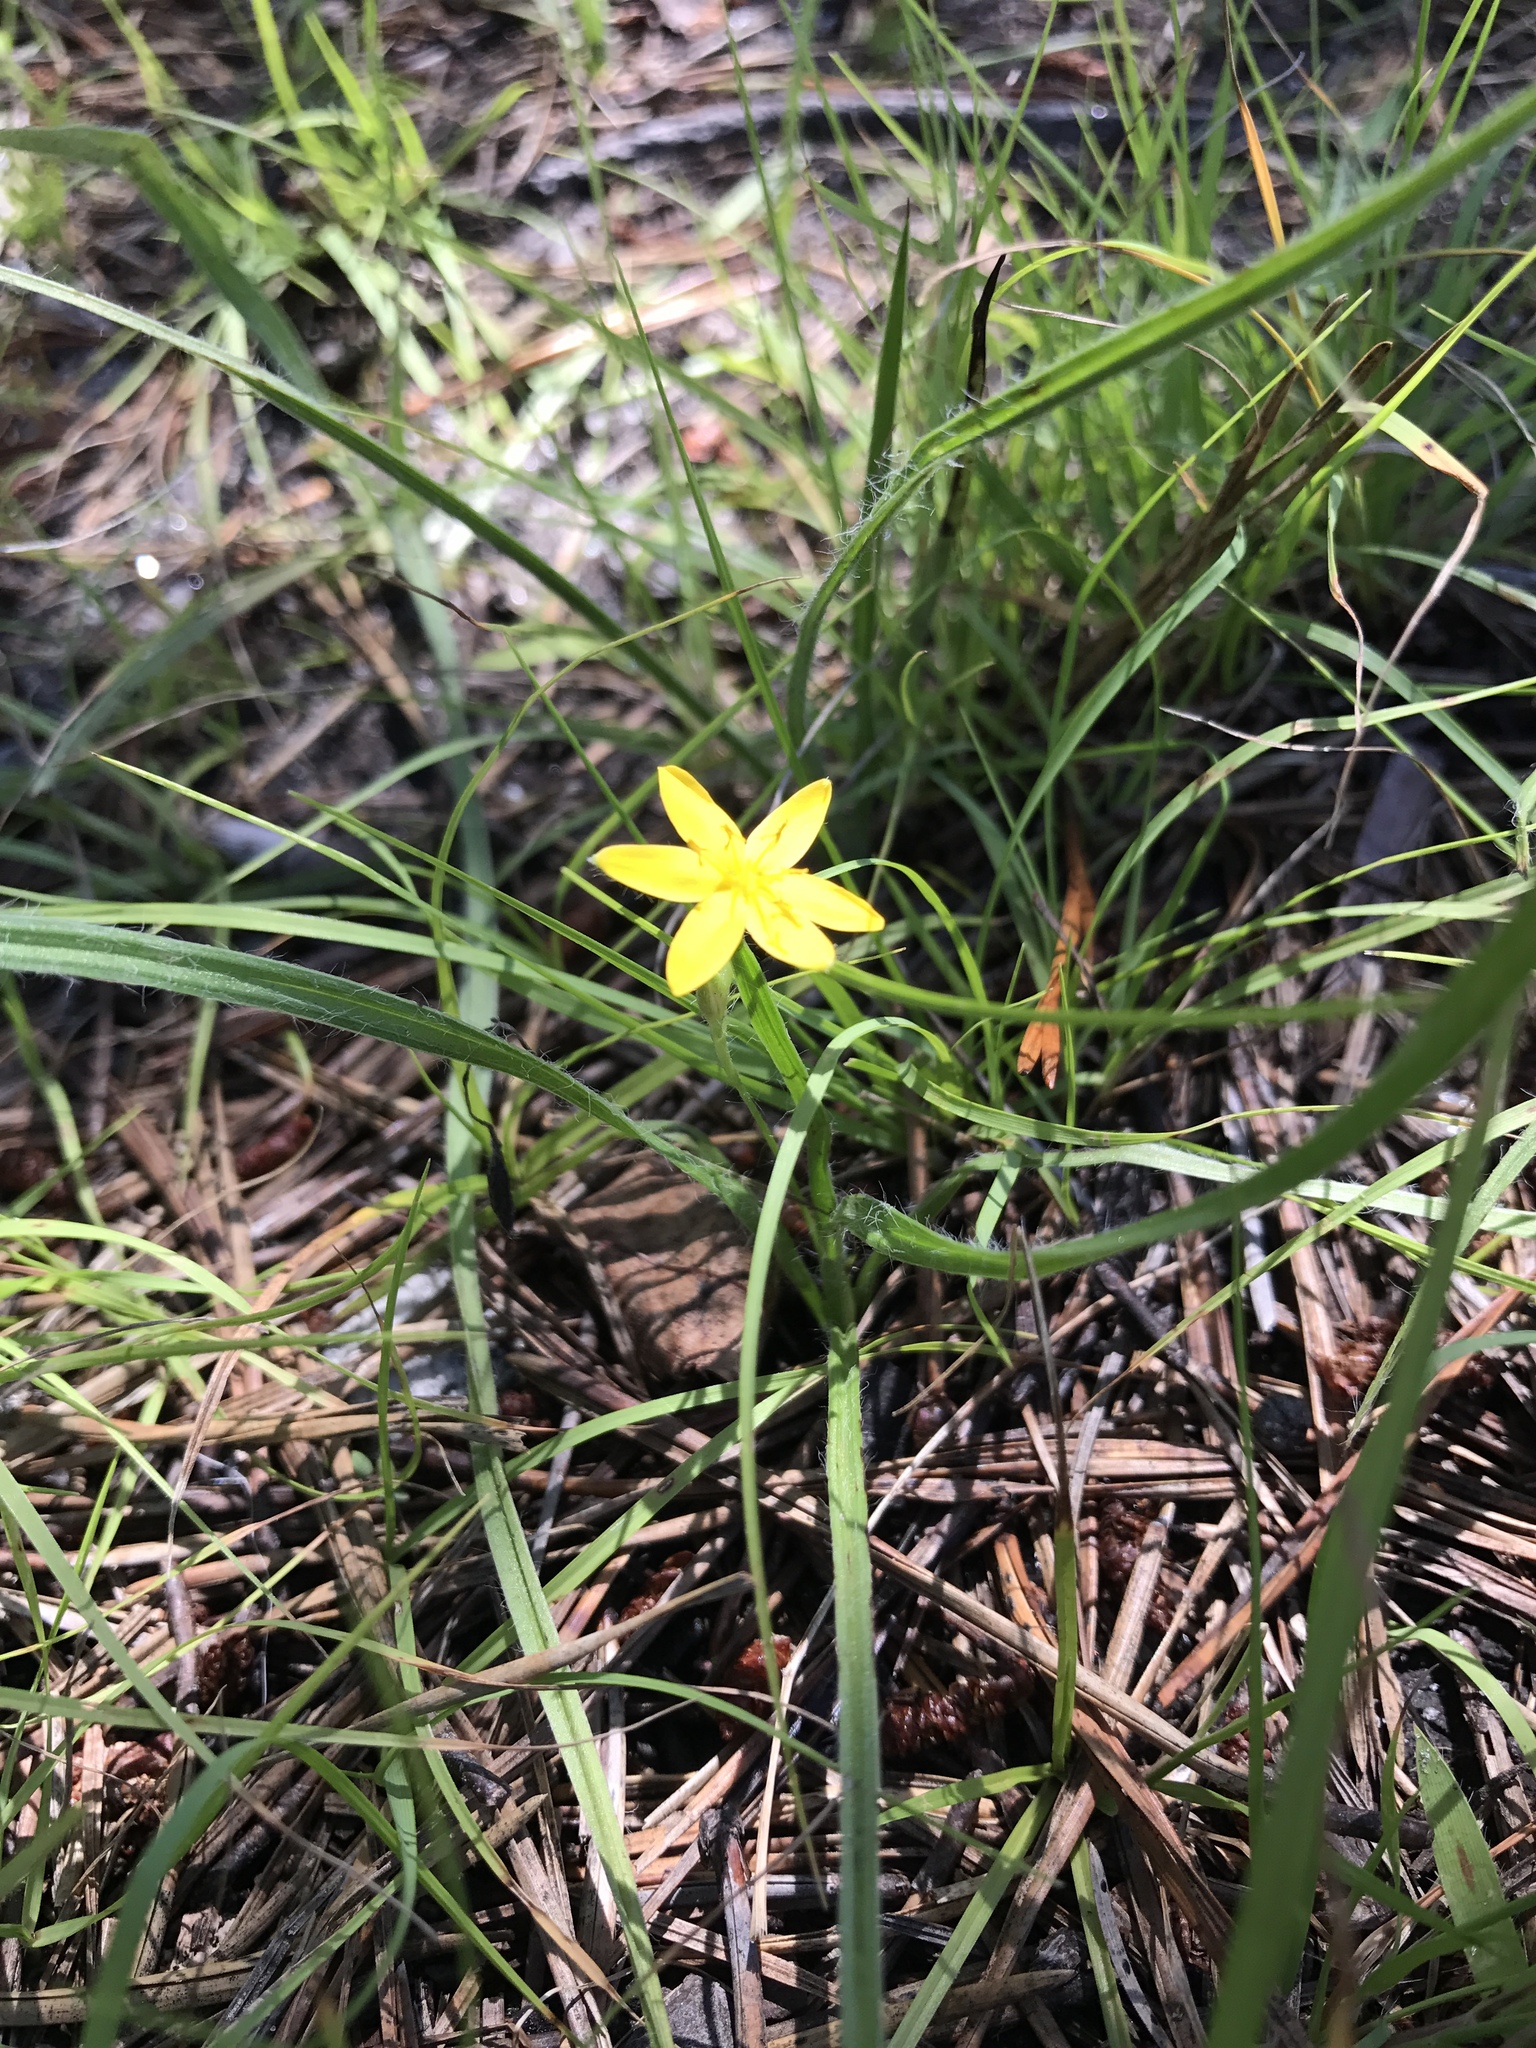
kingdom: Plantae
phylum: Tracheophyta
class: Liliopsida
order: Asparagales
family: Hypoxidaceae
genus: Hypoxis
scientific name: Hypoxis hirsuta
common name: Common goldstar
